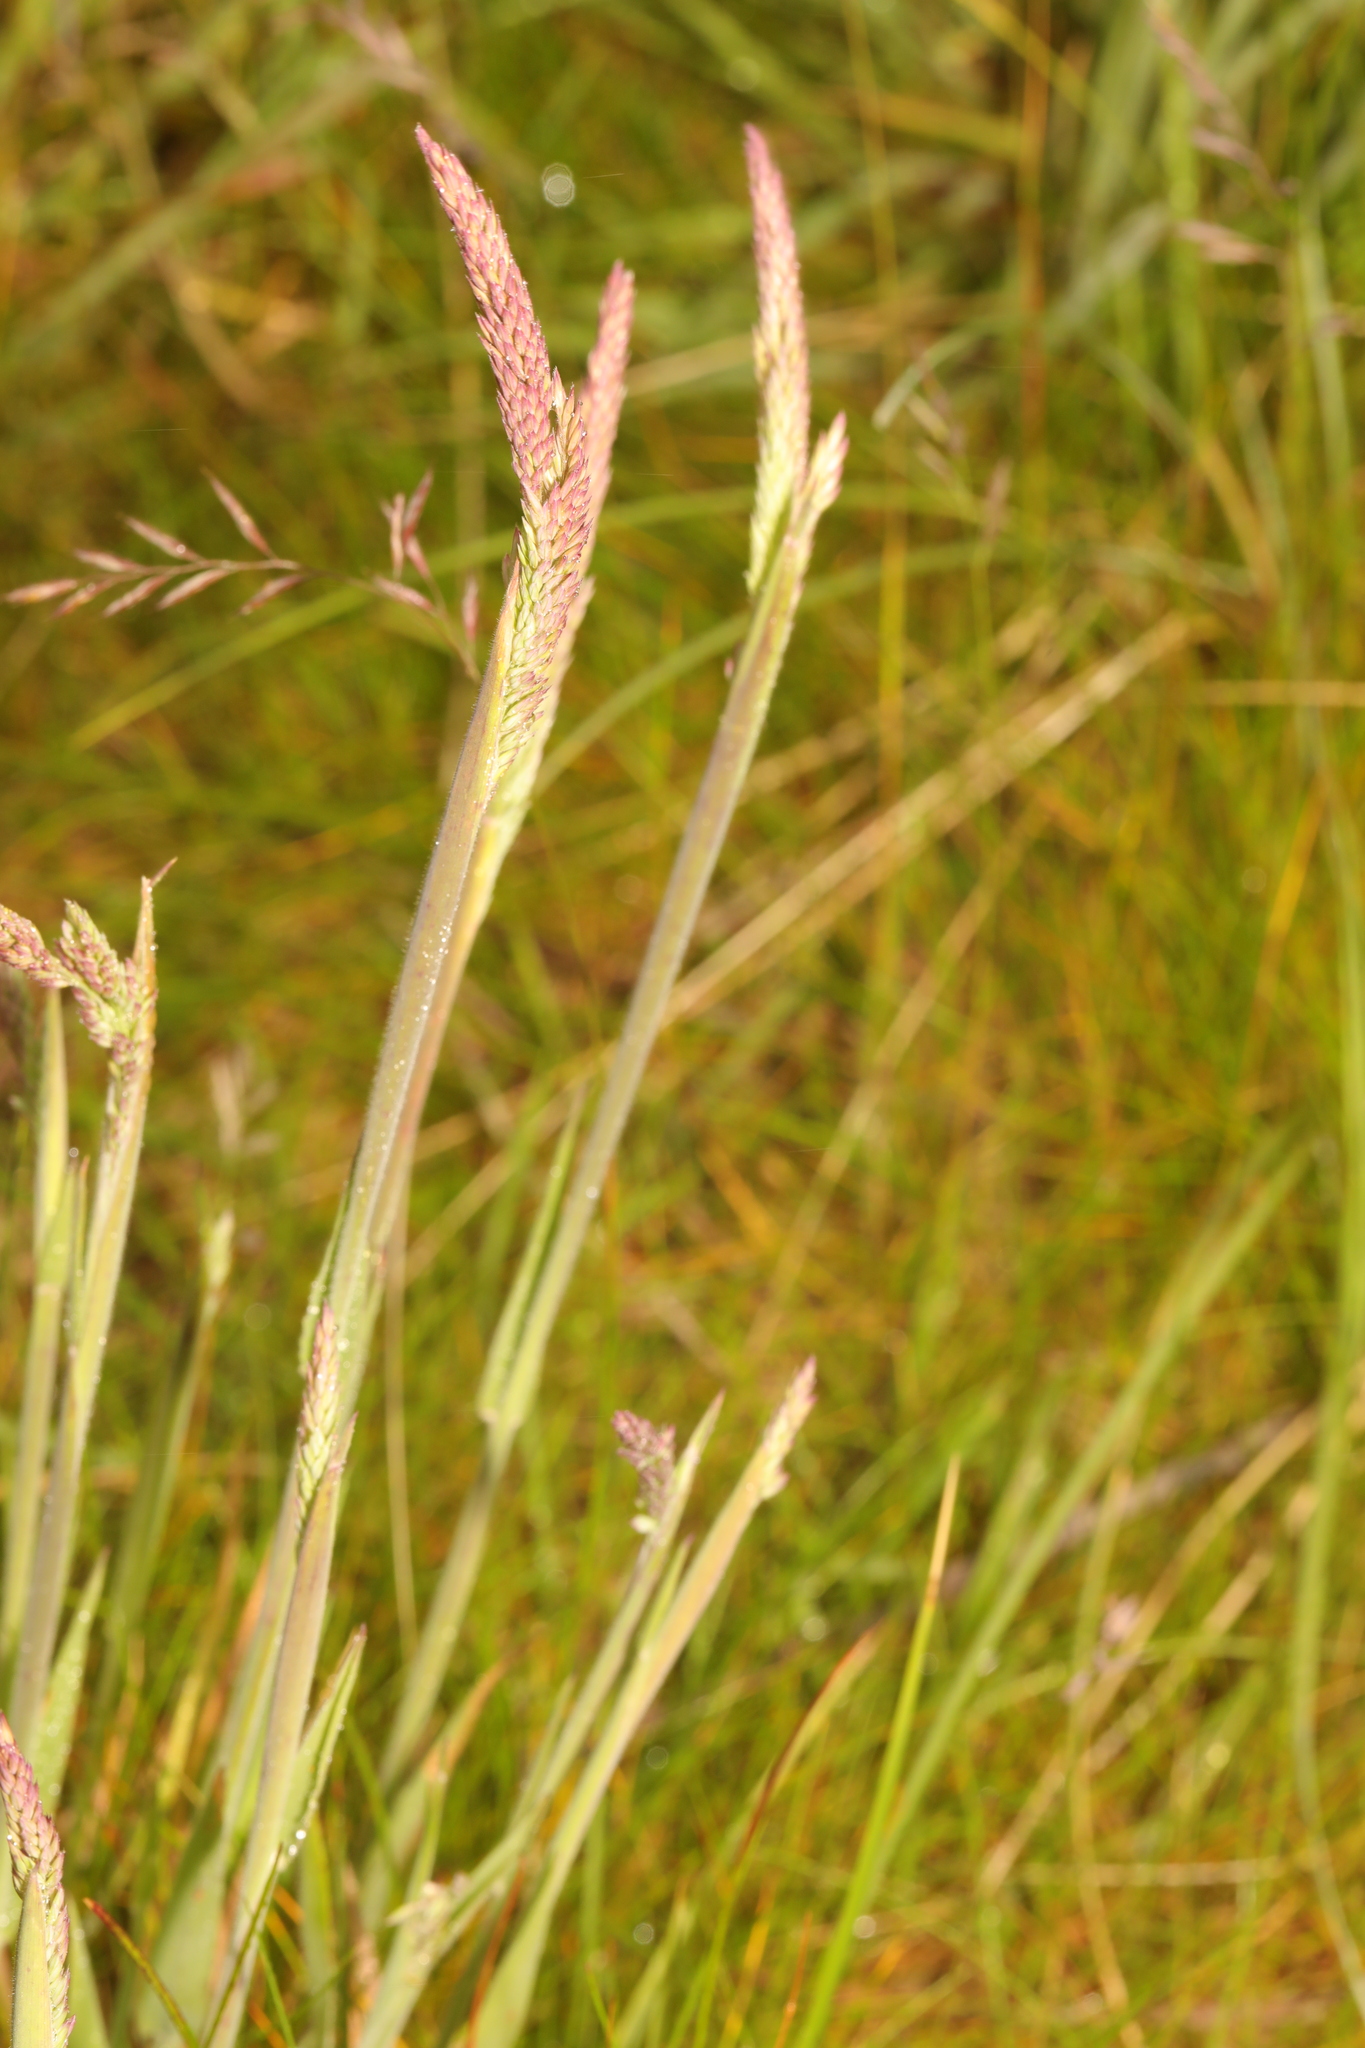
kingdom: Plantae
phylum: Tracheophyta
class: Liliopsida
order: Poales
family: Poaceae
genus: Holcus
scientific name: Holcus lanatus
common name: Yorkshire-fog
